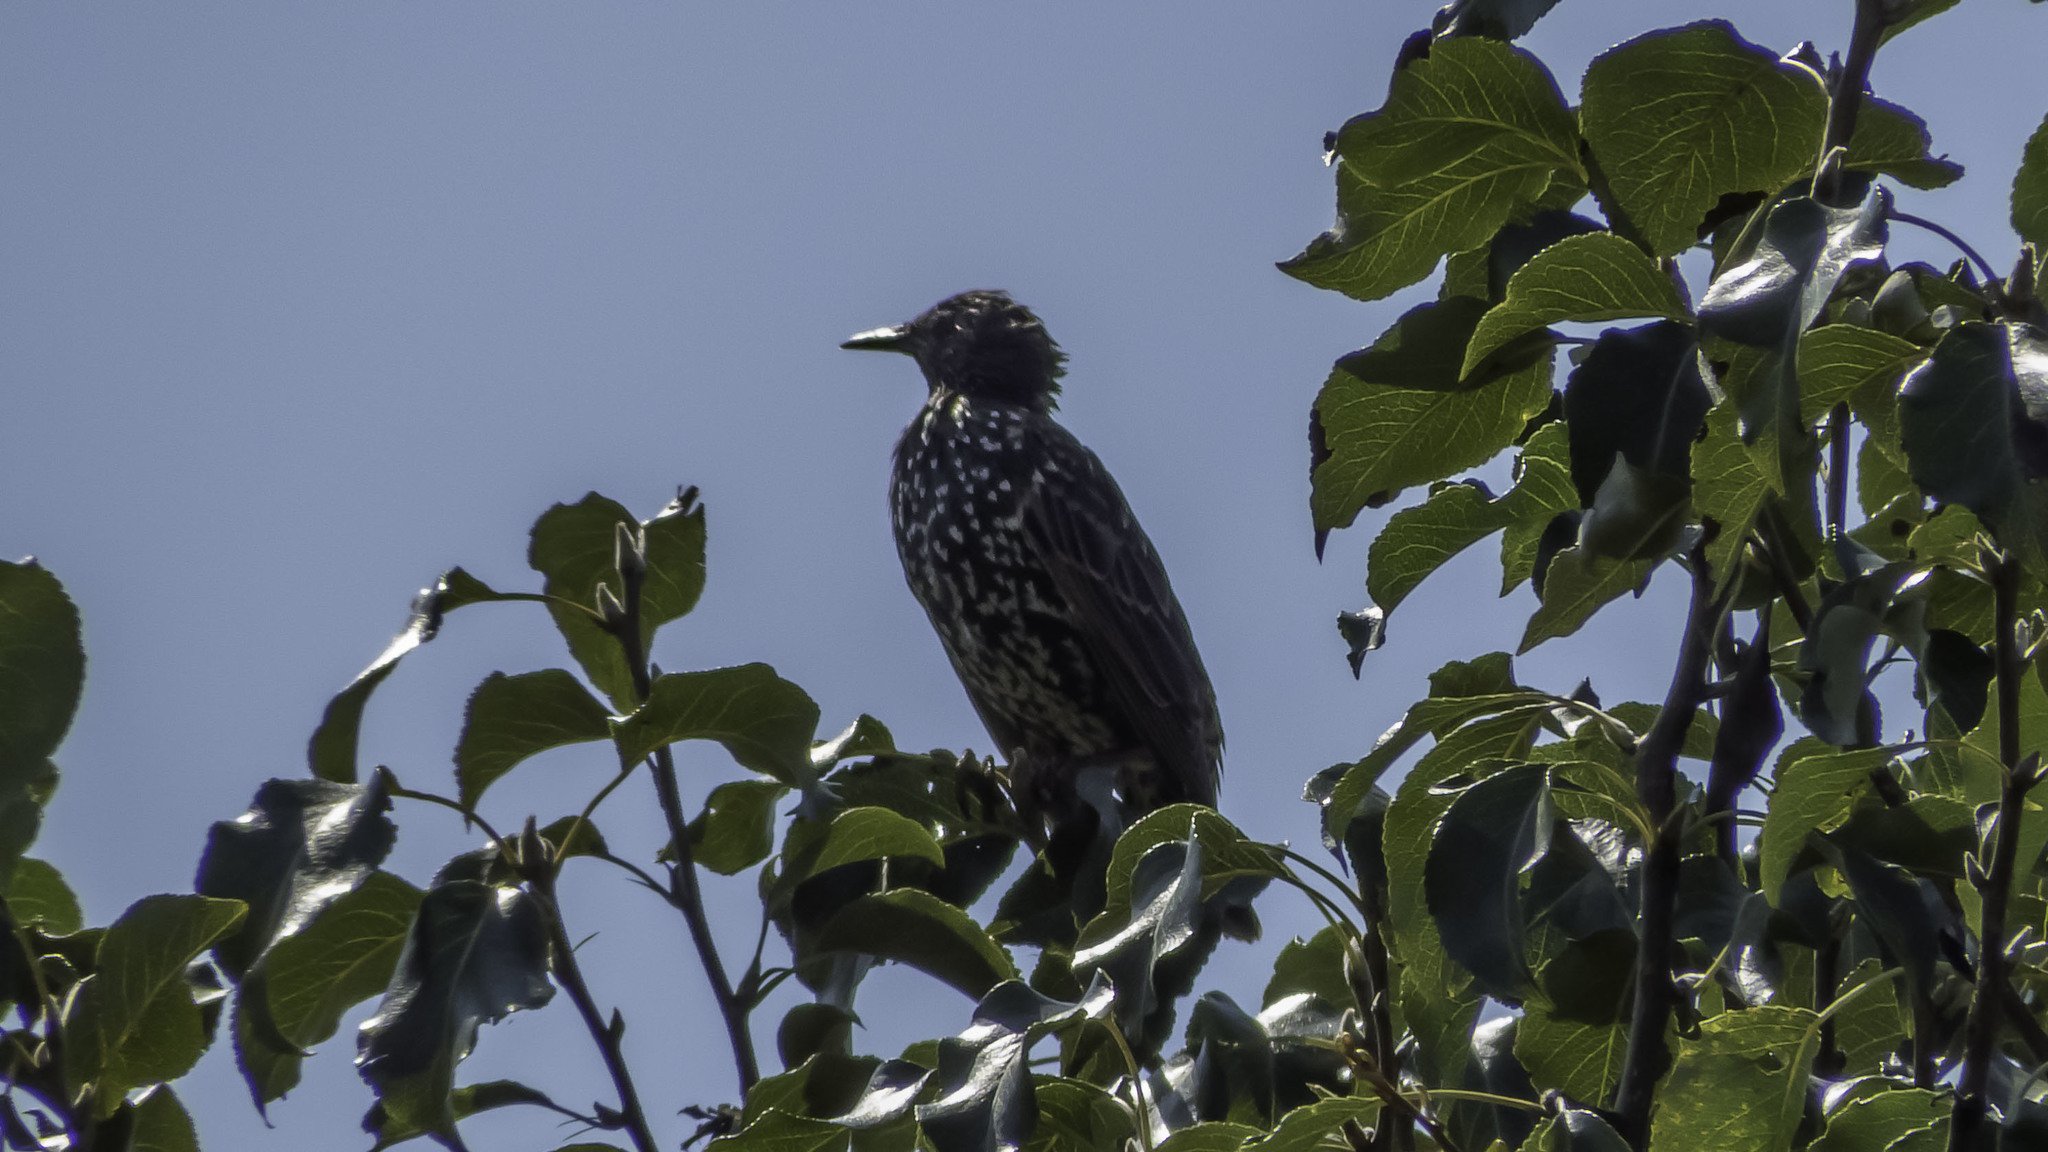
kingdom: Animalia
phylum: Chordata
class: Aves
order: Passeriformes
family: Sturnidae
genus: Sturnus
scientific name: Sturnus vulgaris
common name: Common starling
